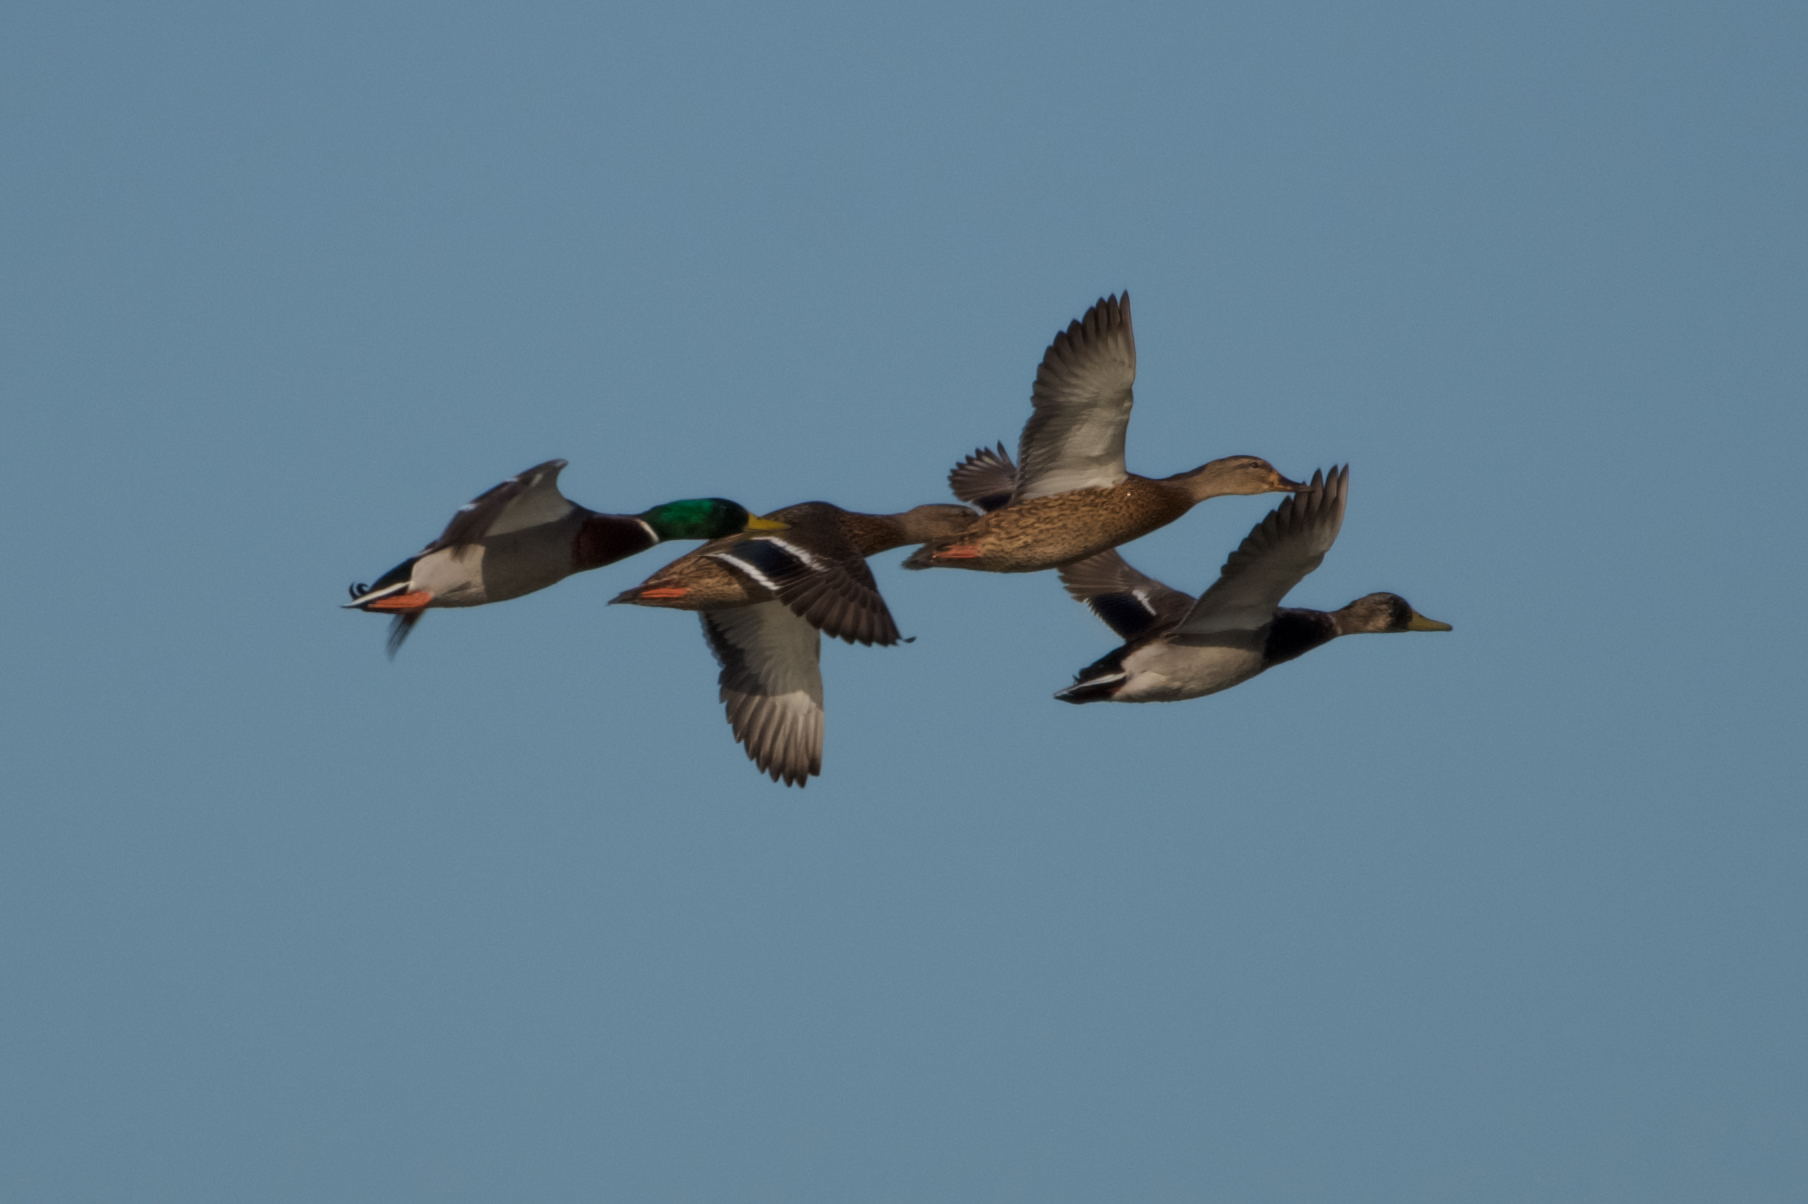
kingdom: Animalia
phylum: Chordata
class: Aves
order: Anseriformes
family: Anatidae
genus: Anas
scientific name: Anas platyrhynchos
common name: Mallard
